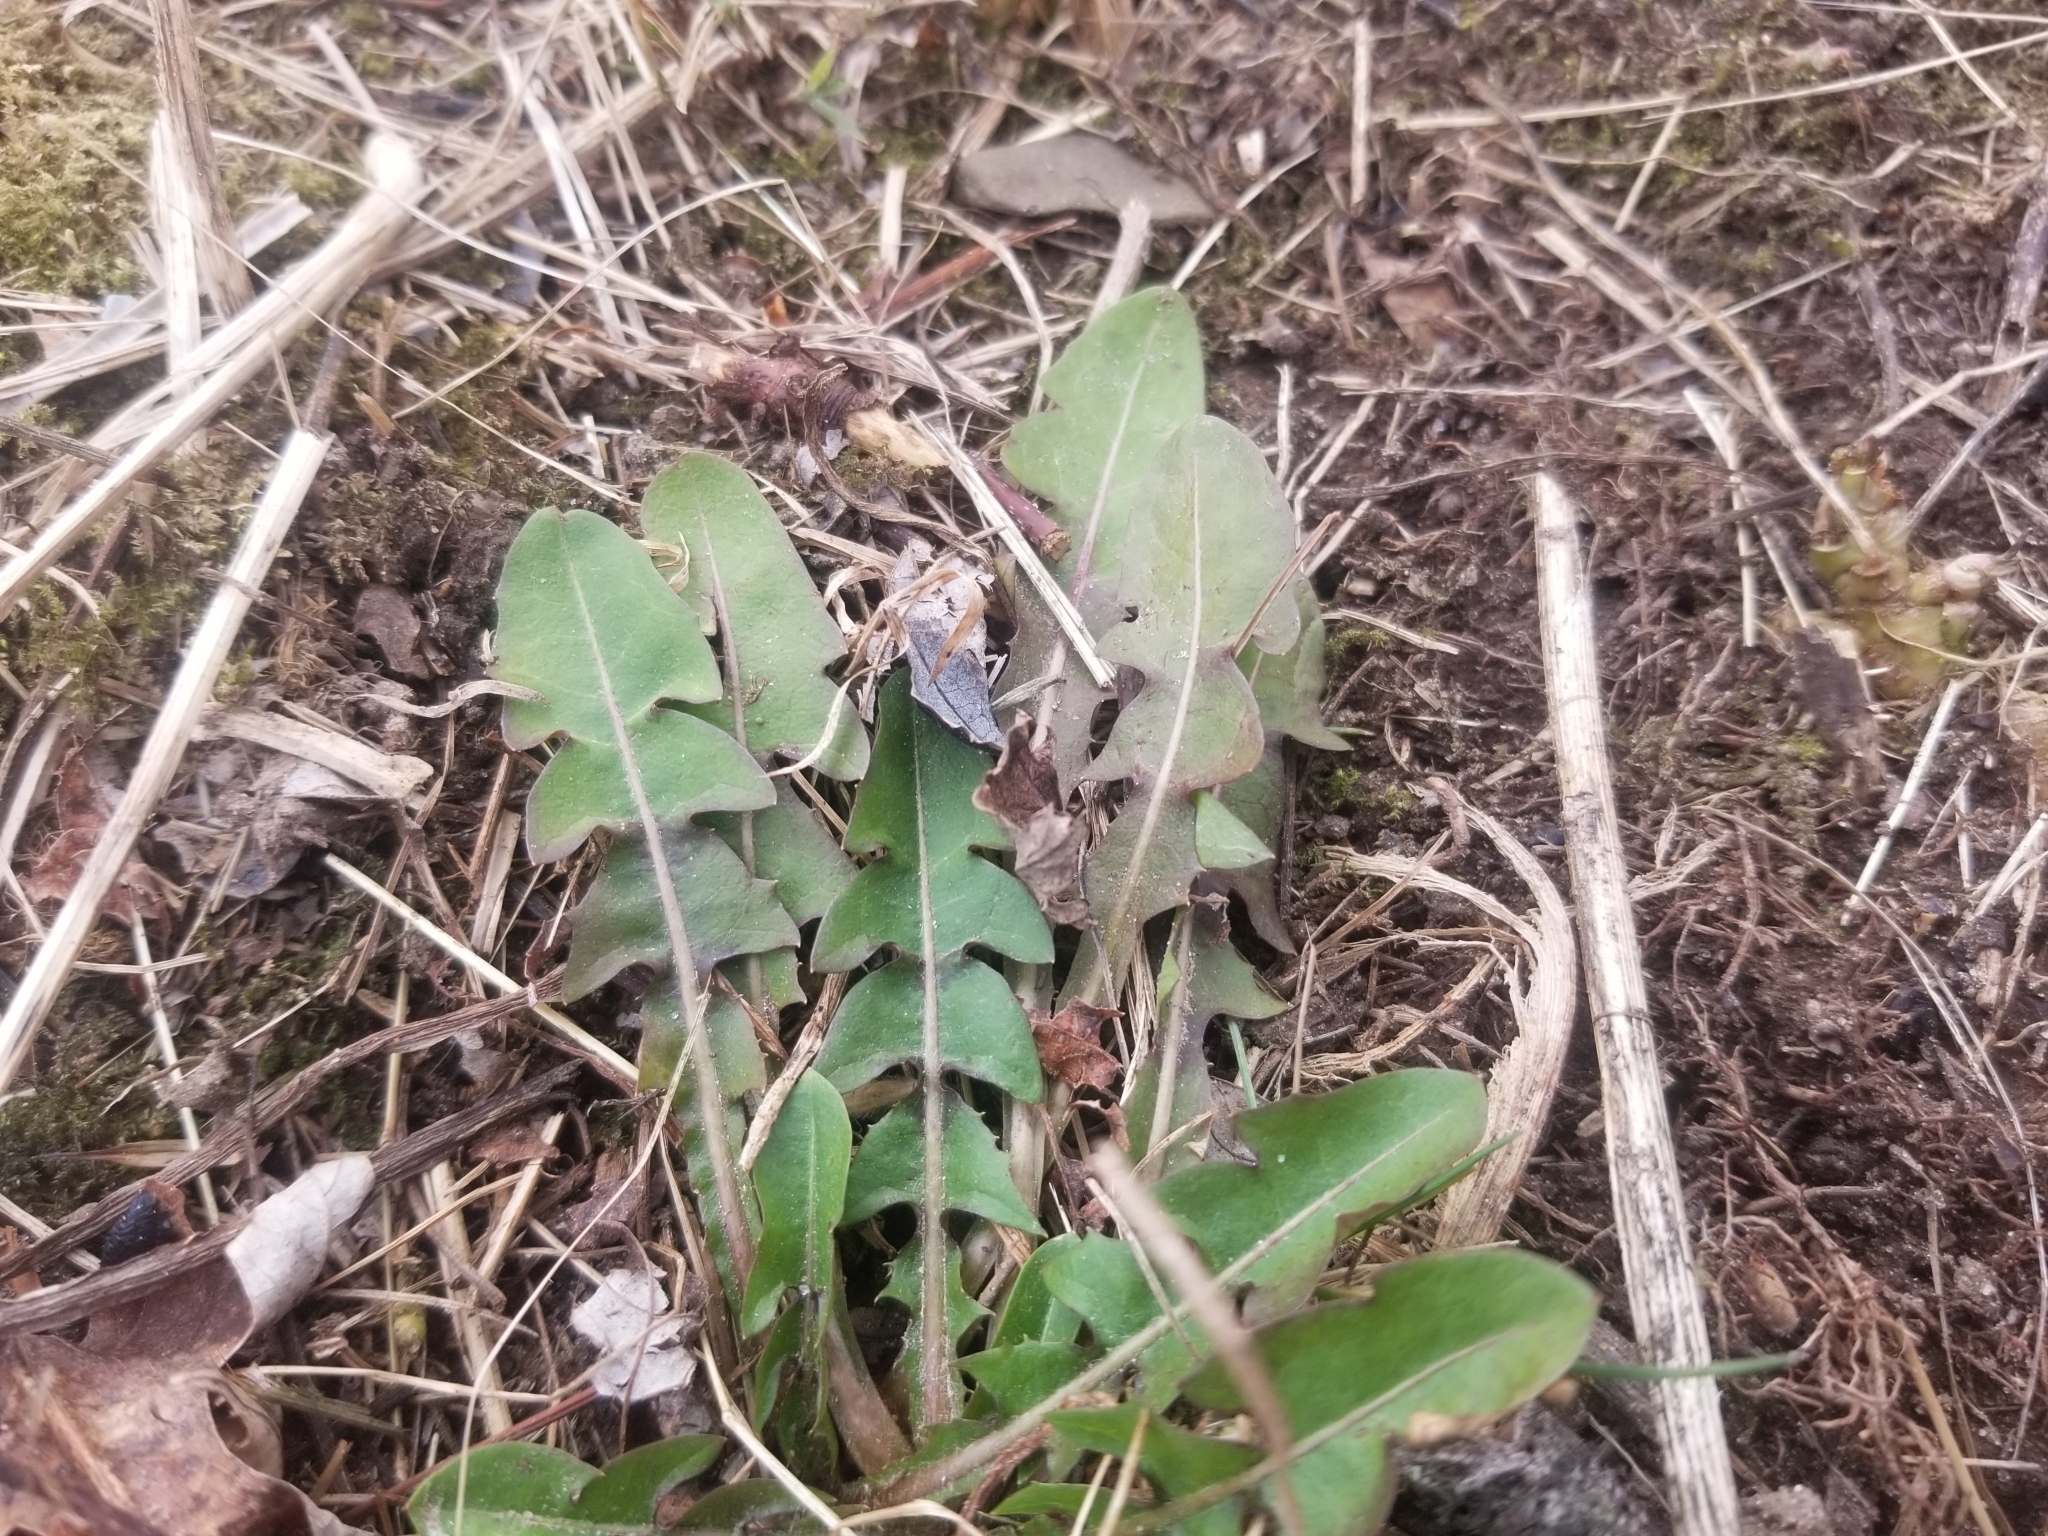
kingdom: Plantae
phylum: Tracheophyta
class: Magnoliopsida
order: Asterales
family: Asteraceae
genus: Taraxacum
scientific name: Taraxacum officinale
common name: Common dandelion
